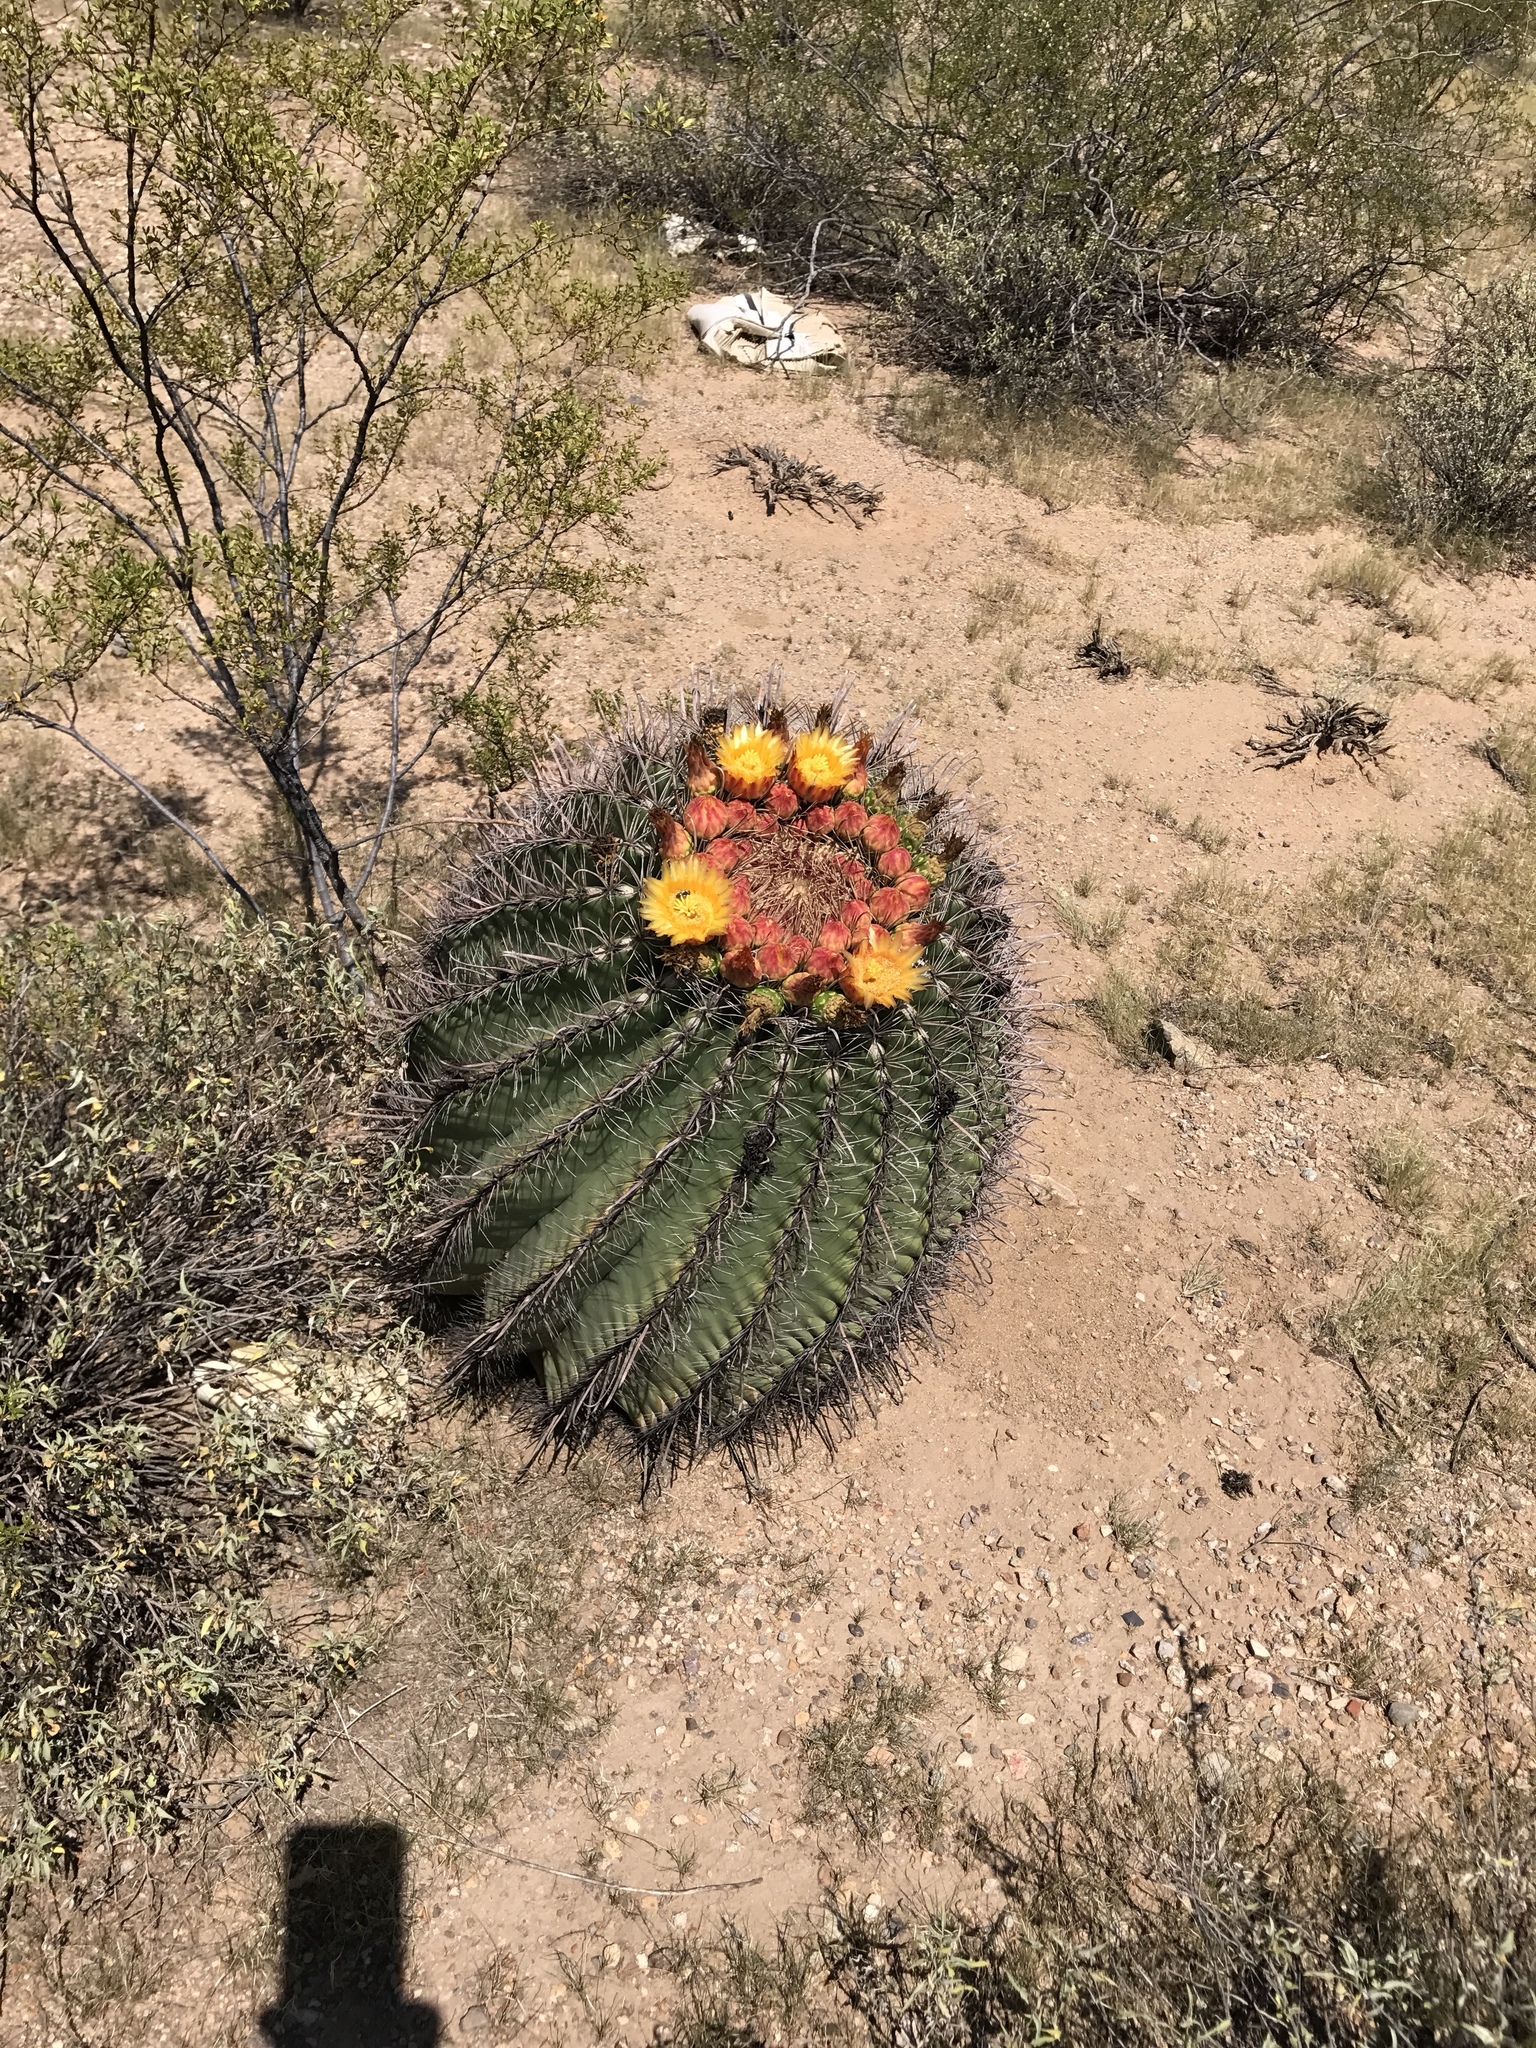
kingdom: Plantae
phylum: Tracheophyta
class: Magnoliopsida
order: Caryophyllales
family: Cactaceae
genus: Ferocactus
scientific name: Ferocactus wislizeni
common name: Candy barrel cactus
